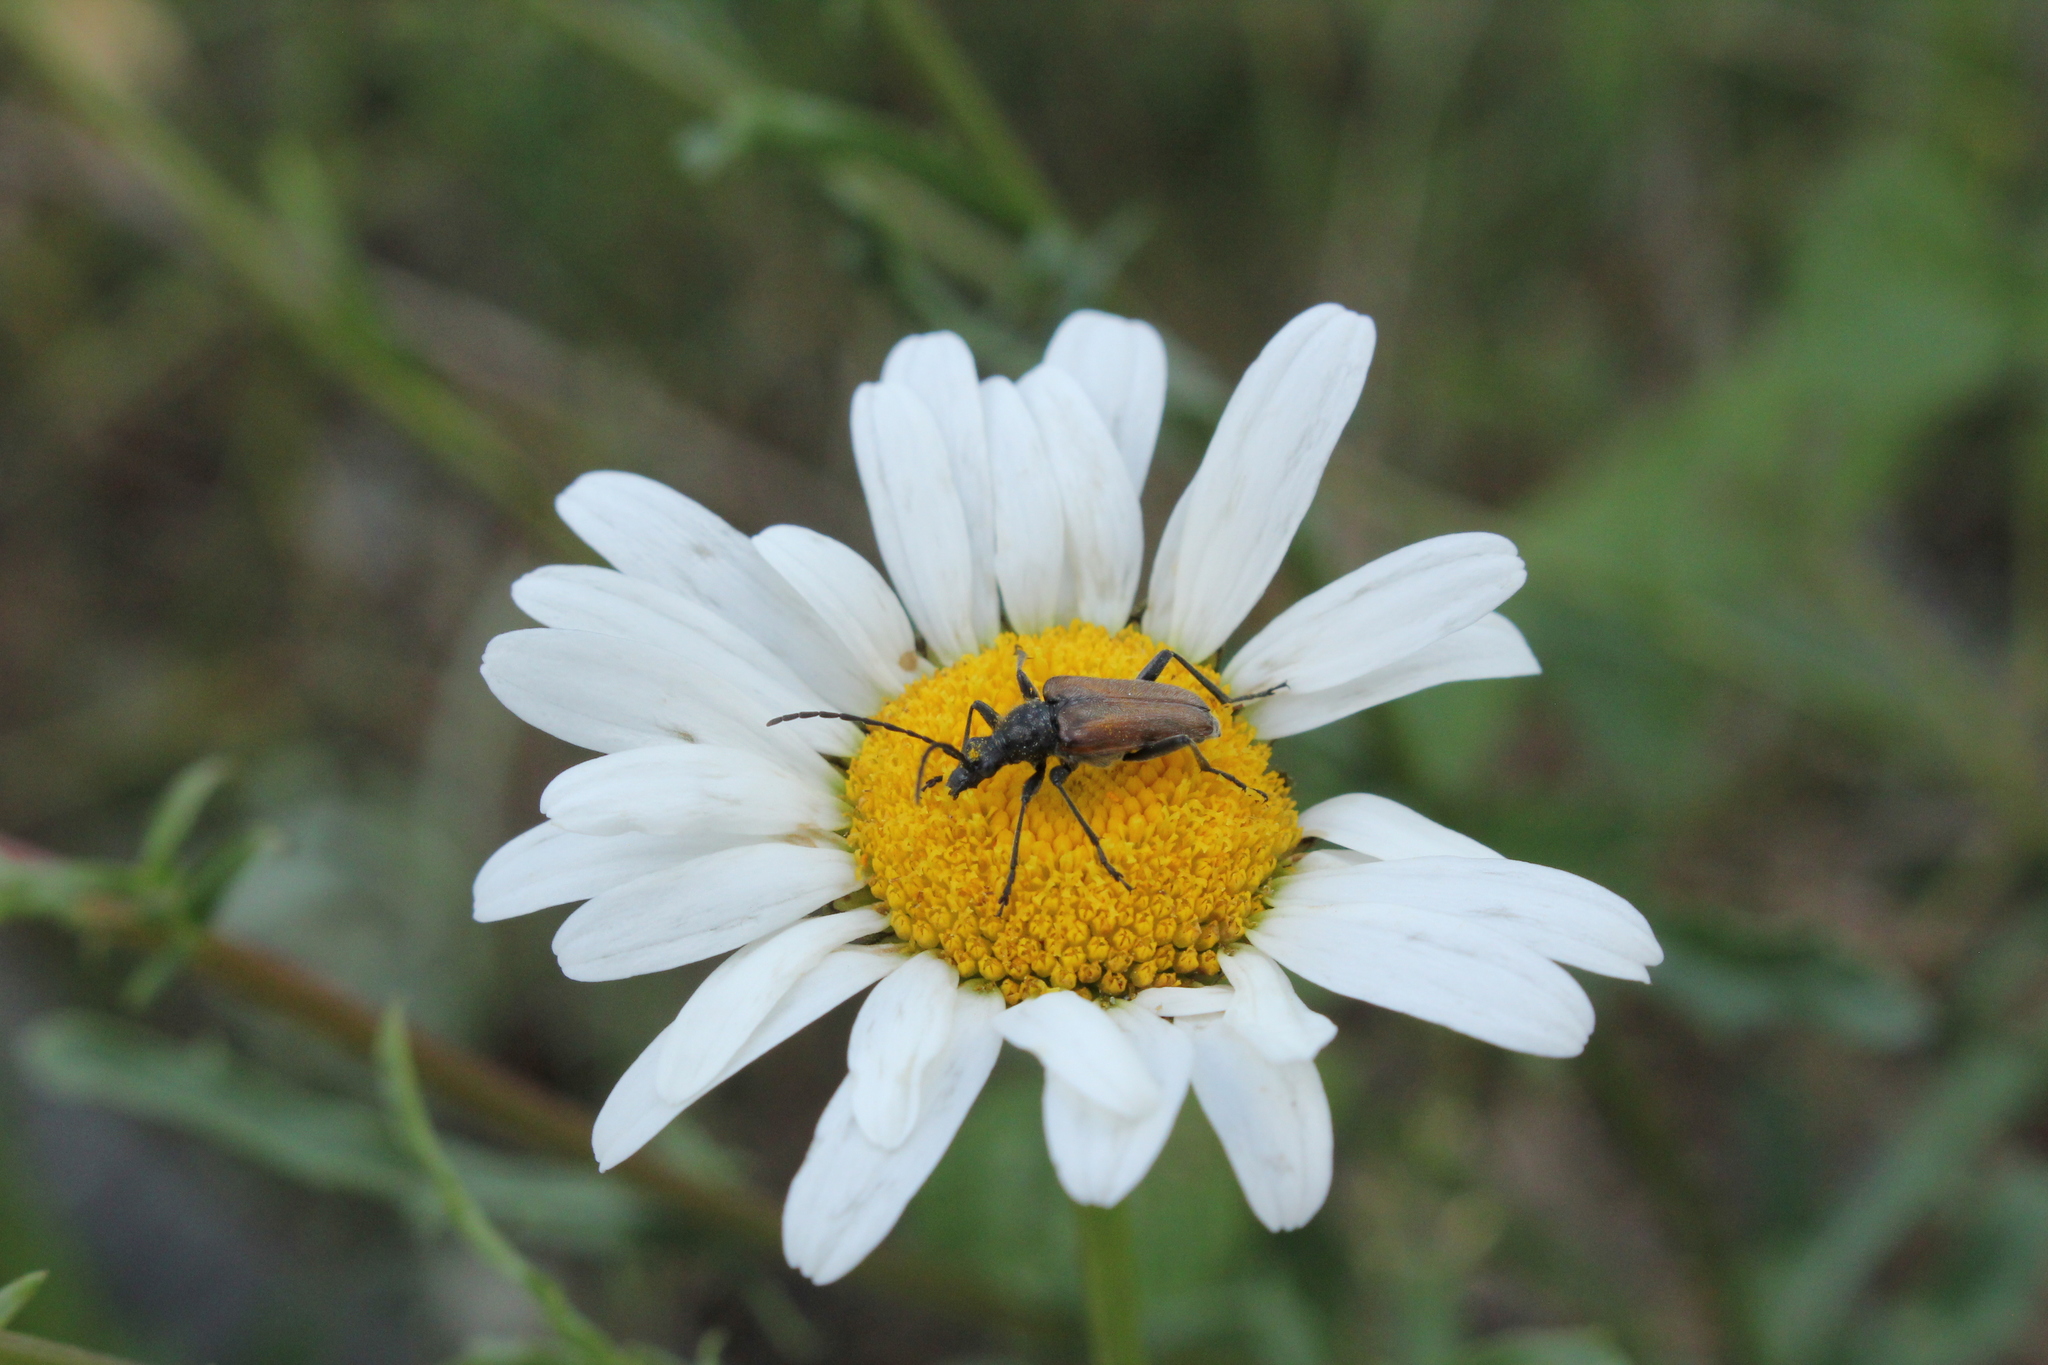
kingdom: Animalia
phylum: Arthropoda
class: Insecta
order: Coleoptera
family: Cerambycidae
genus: Gnathacmaeops
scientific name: Gnathacmaeops pratensis
